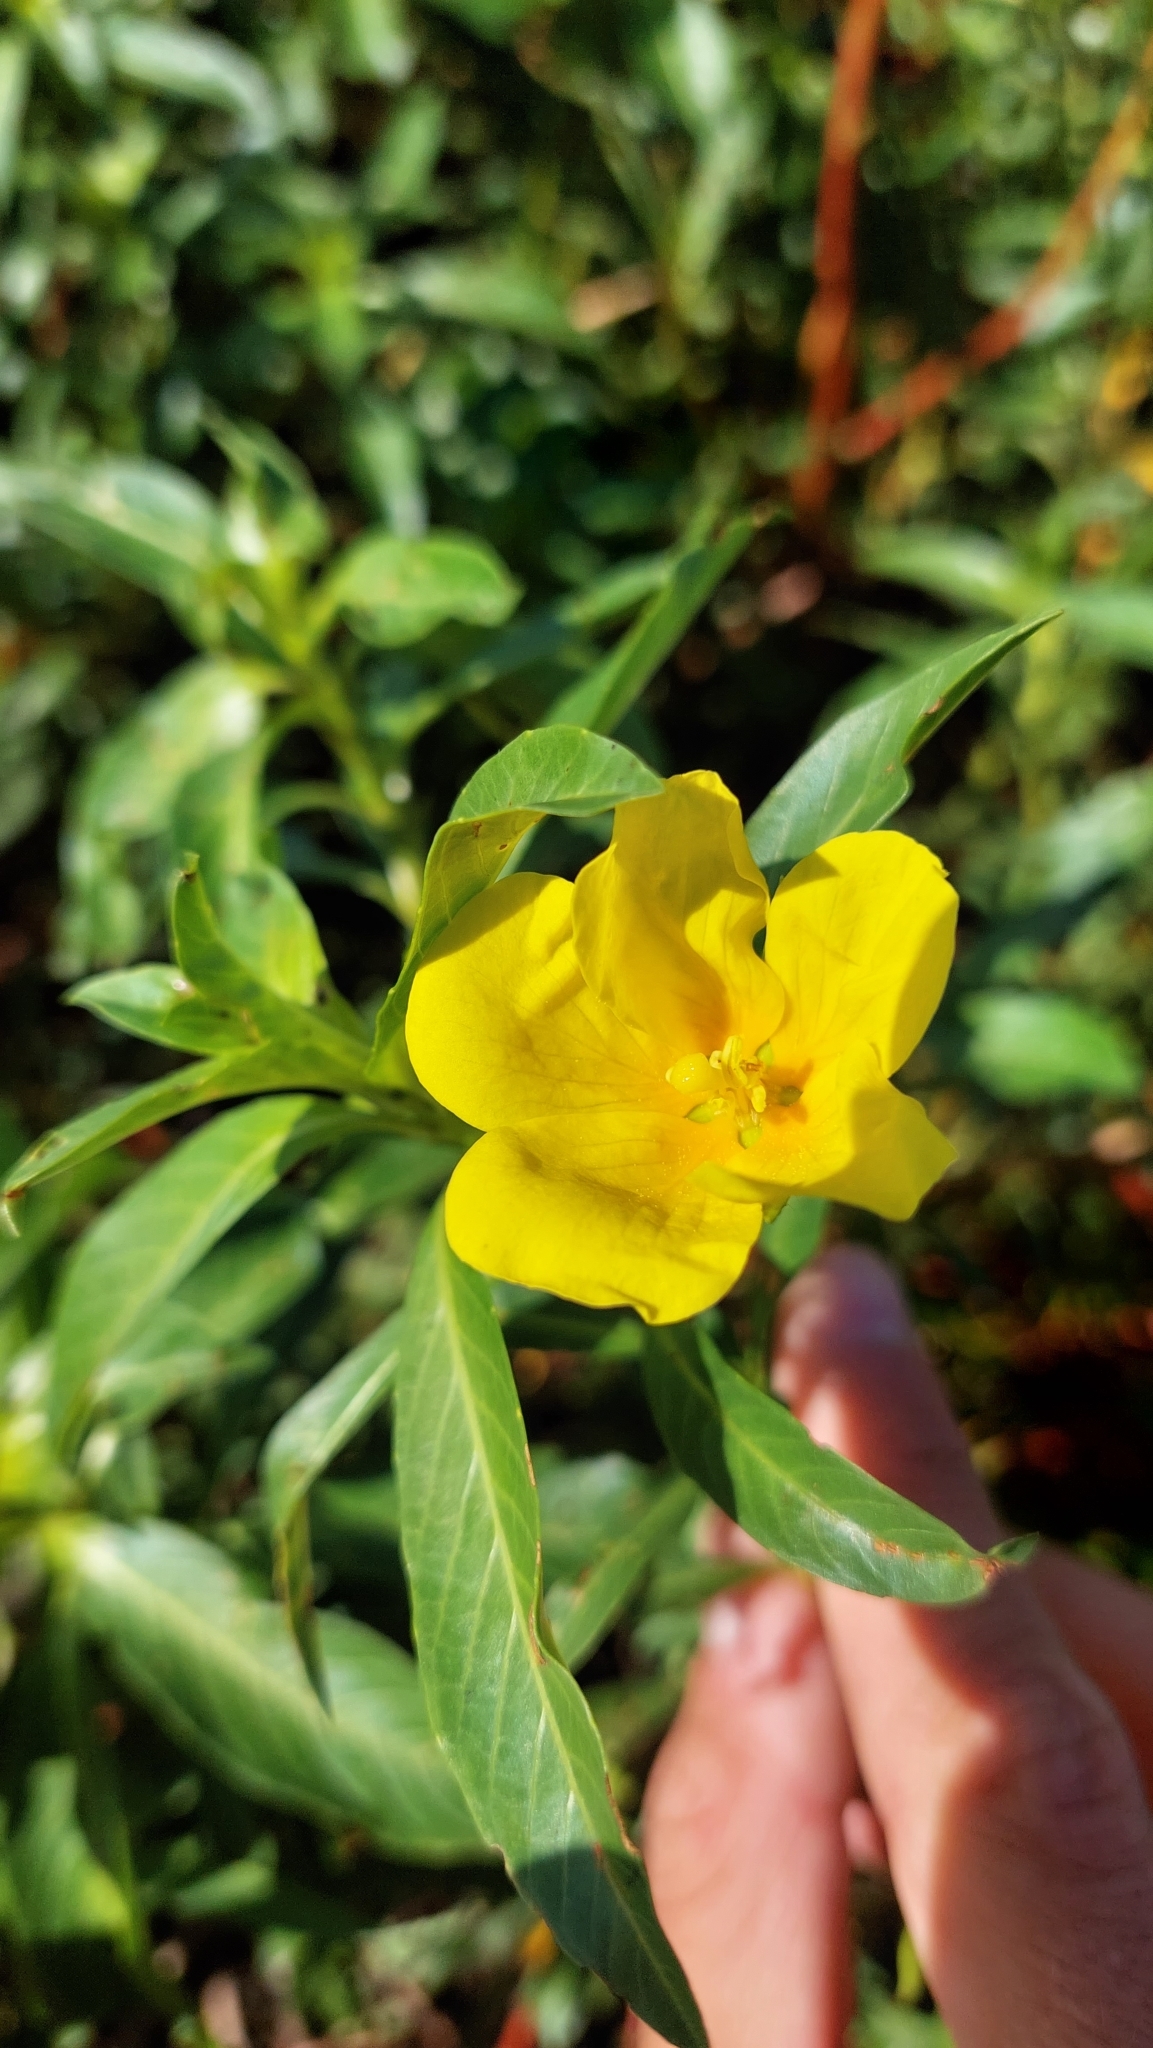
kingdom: Plantae
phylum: Tracheophyta
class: Magnoliopsida
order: Myrtales
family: Onagraceae
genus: Ludwigia
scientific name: Ludwigia peploides
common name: Floating primrose-willow
